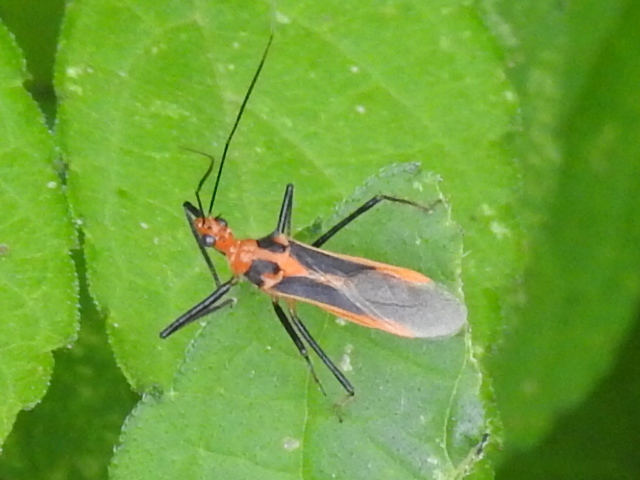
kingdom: Animalia
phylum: Arthropoda
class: Insecta
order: Hemiptera
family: Reduviidae
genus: Repipta
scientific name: Repipta taurus
